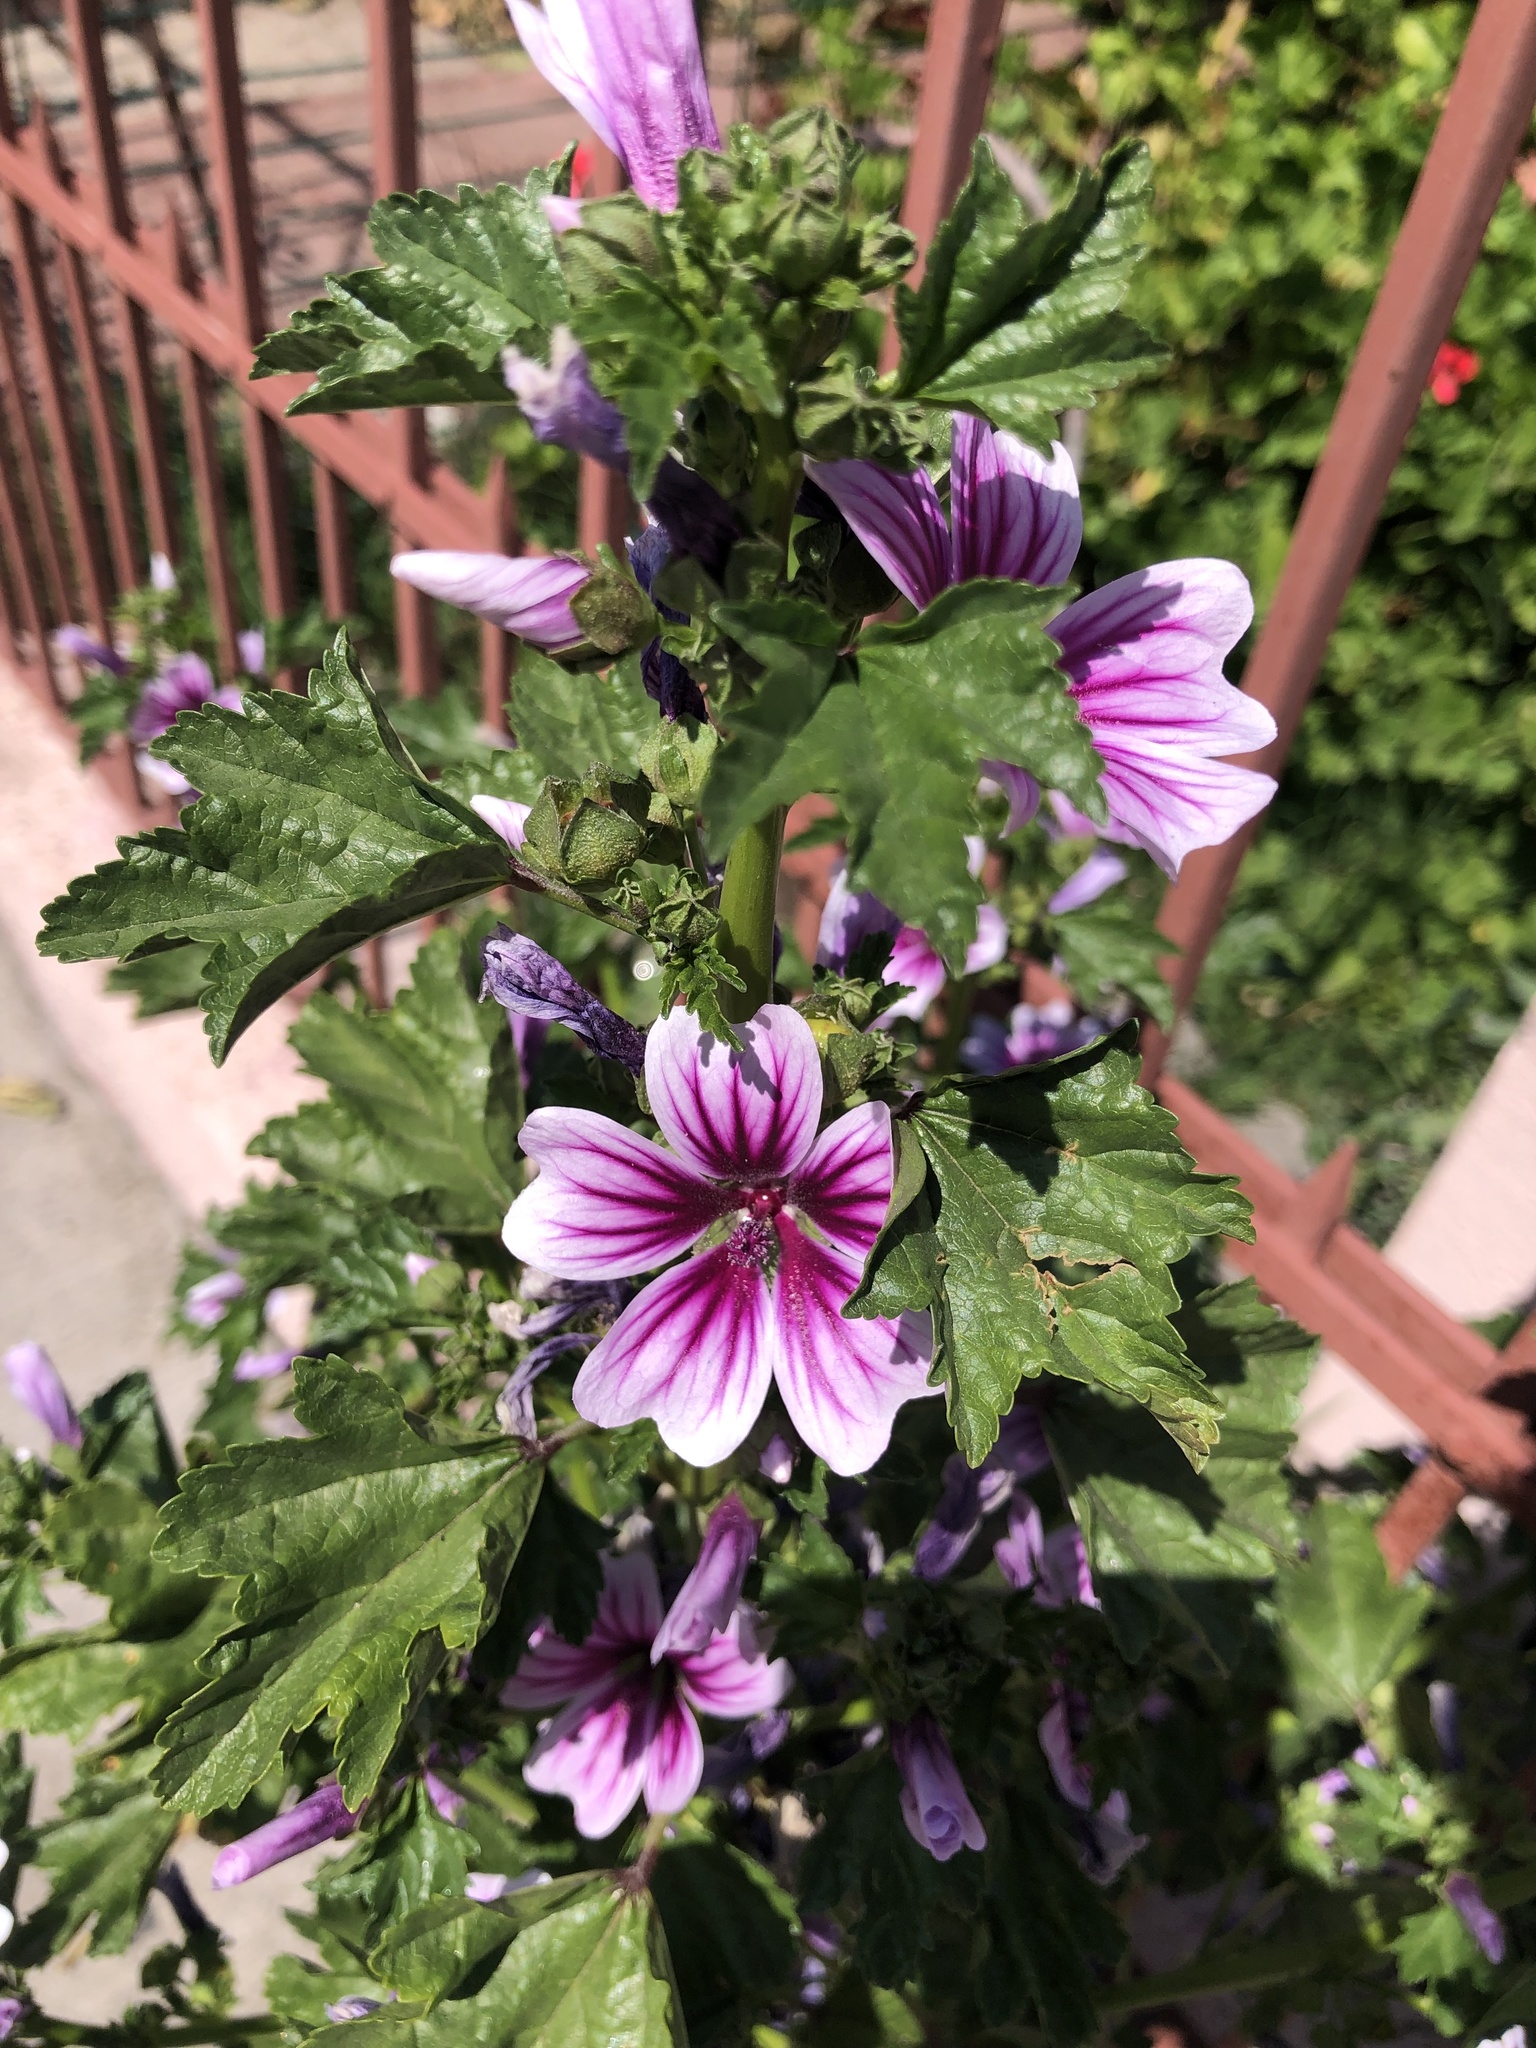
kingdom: Plantae
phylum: Tracheophyta
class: Magnoliopsida
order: Malvales
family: Malvaceae
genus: Malva
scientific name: Malva arborea
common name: Tree mallow
